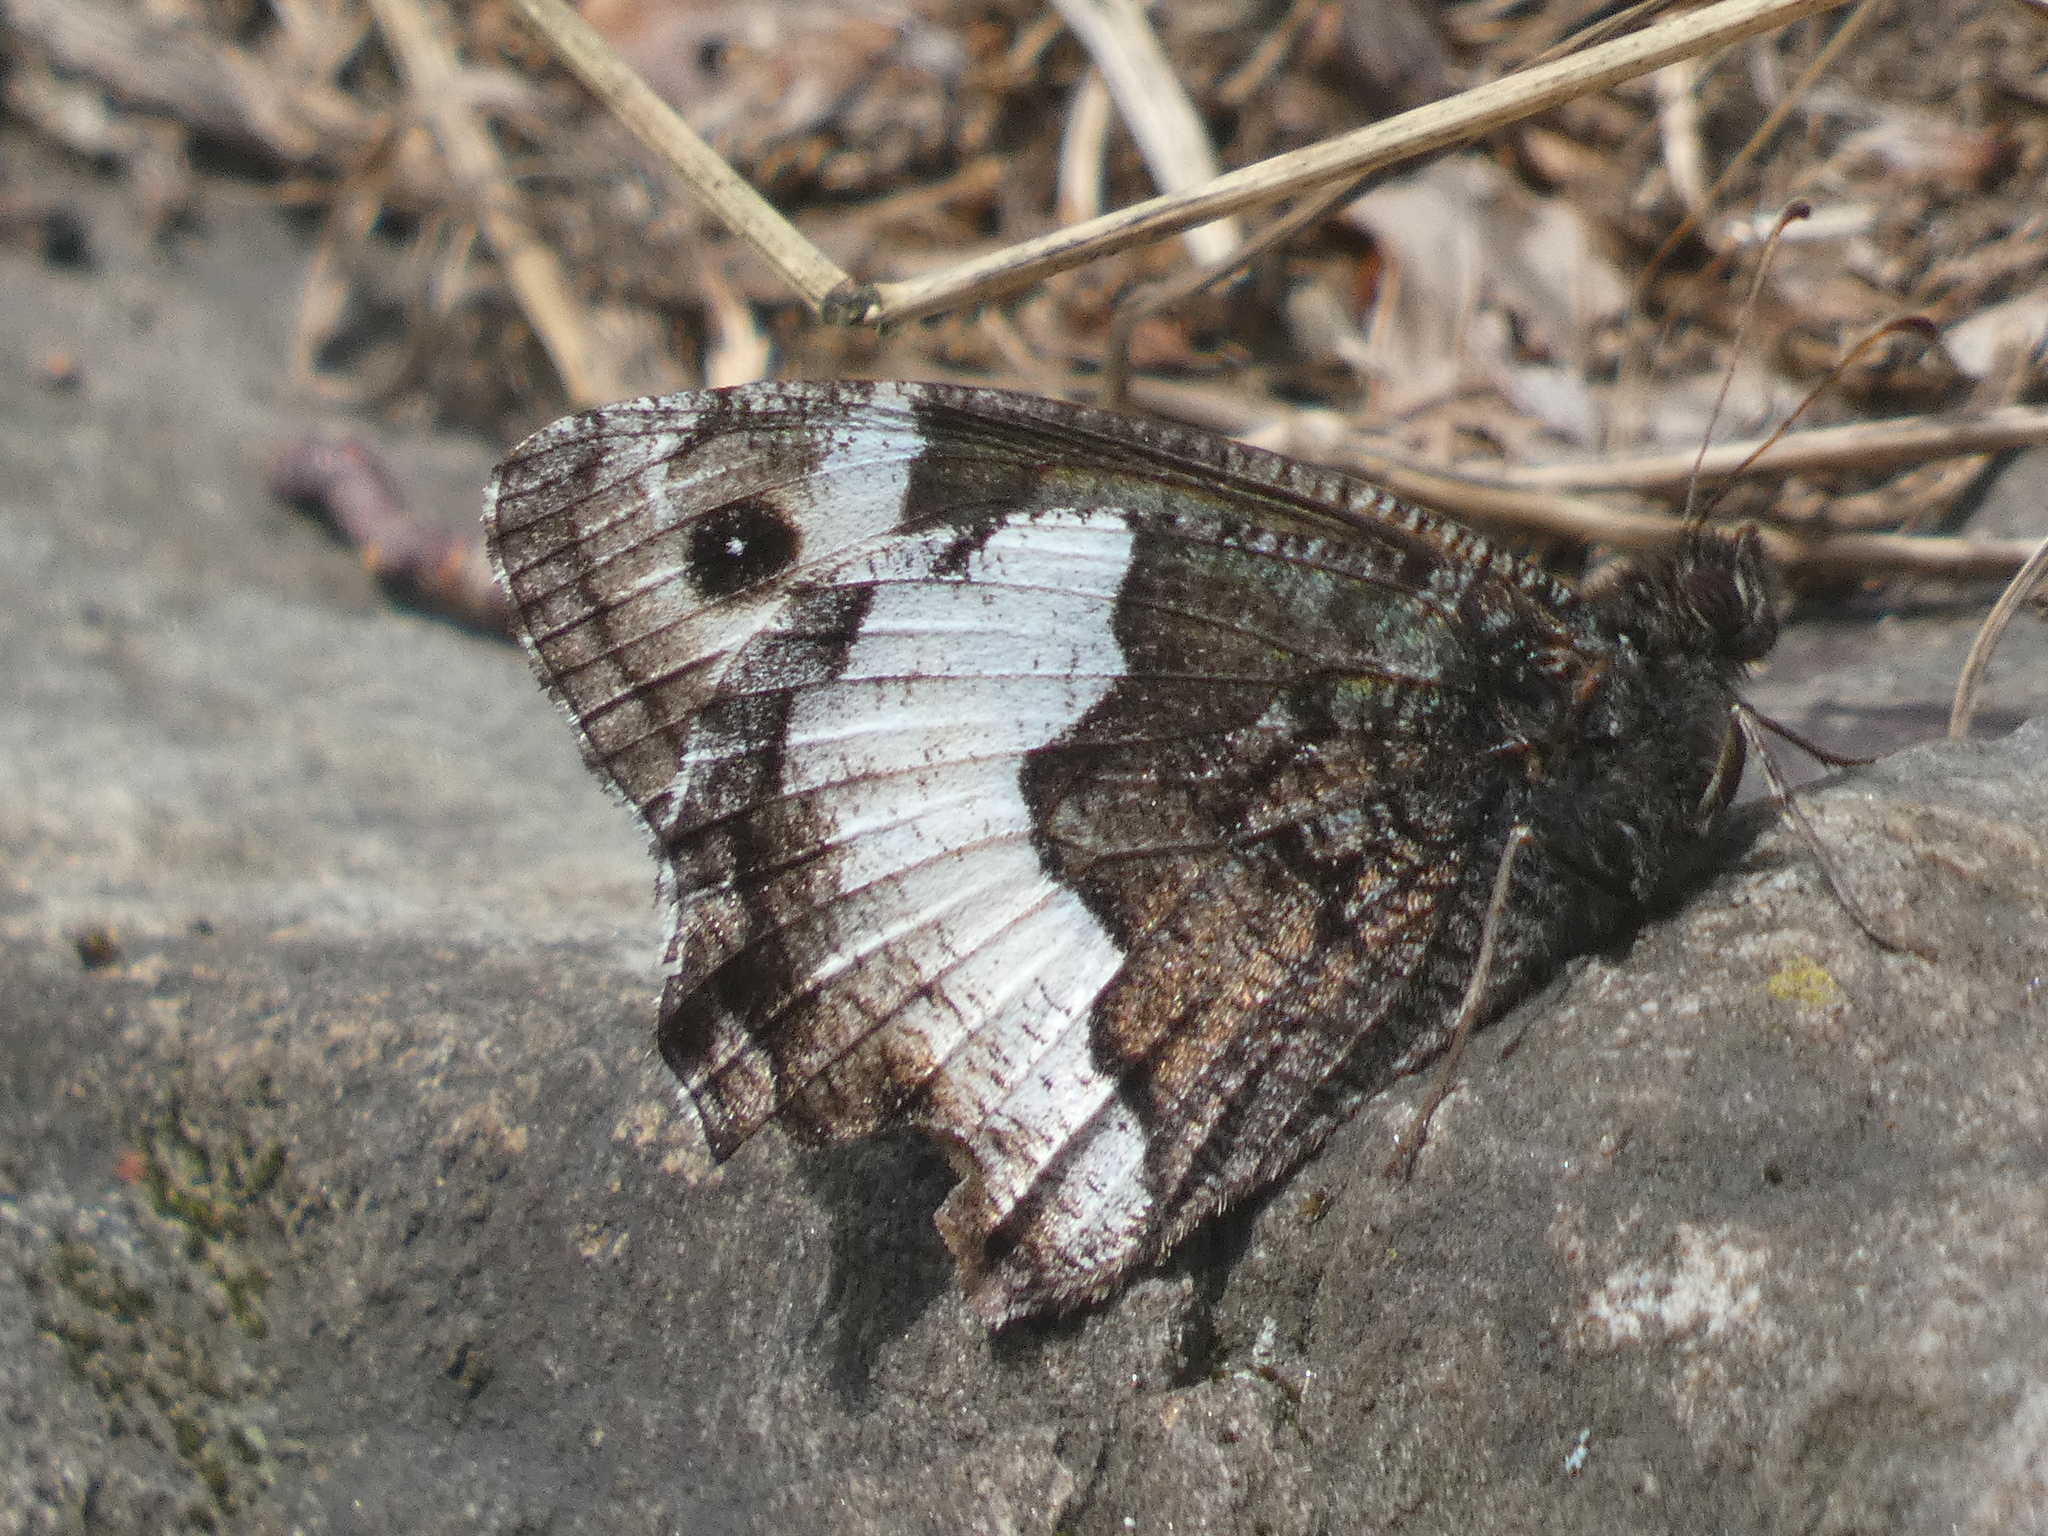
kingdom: Animalia
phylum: Arthropoda
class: Insecta
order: Lepidoptera
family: Nymphalidae
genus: Hipparchia
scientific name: Hipparchia hermione
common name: Rock grayling
